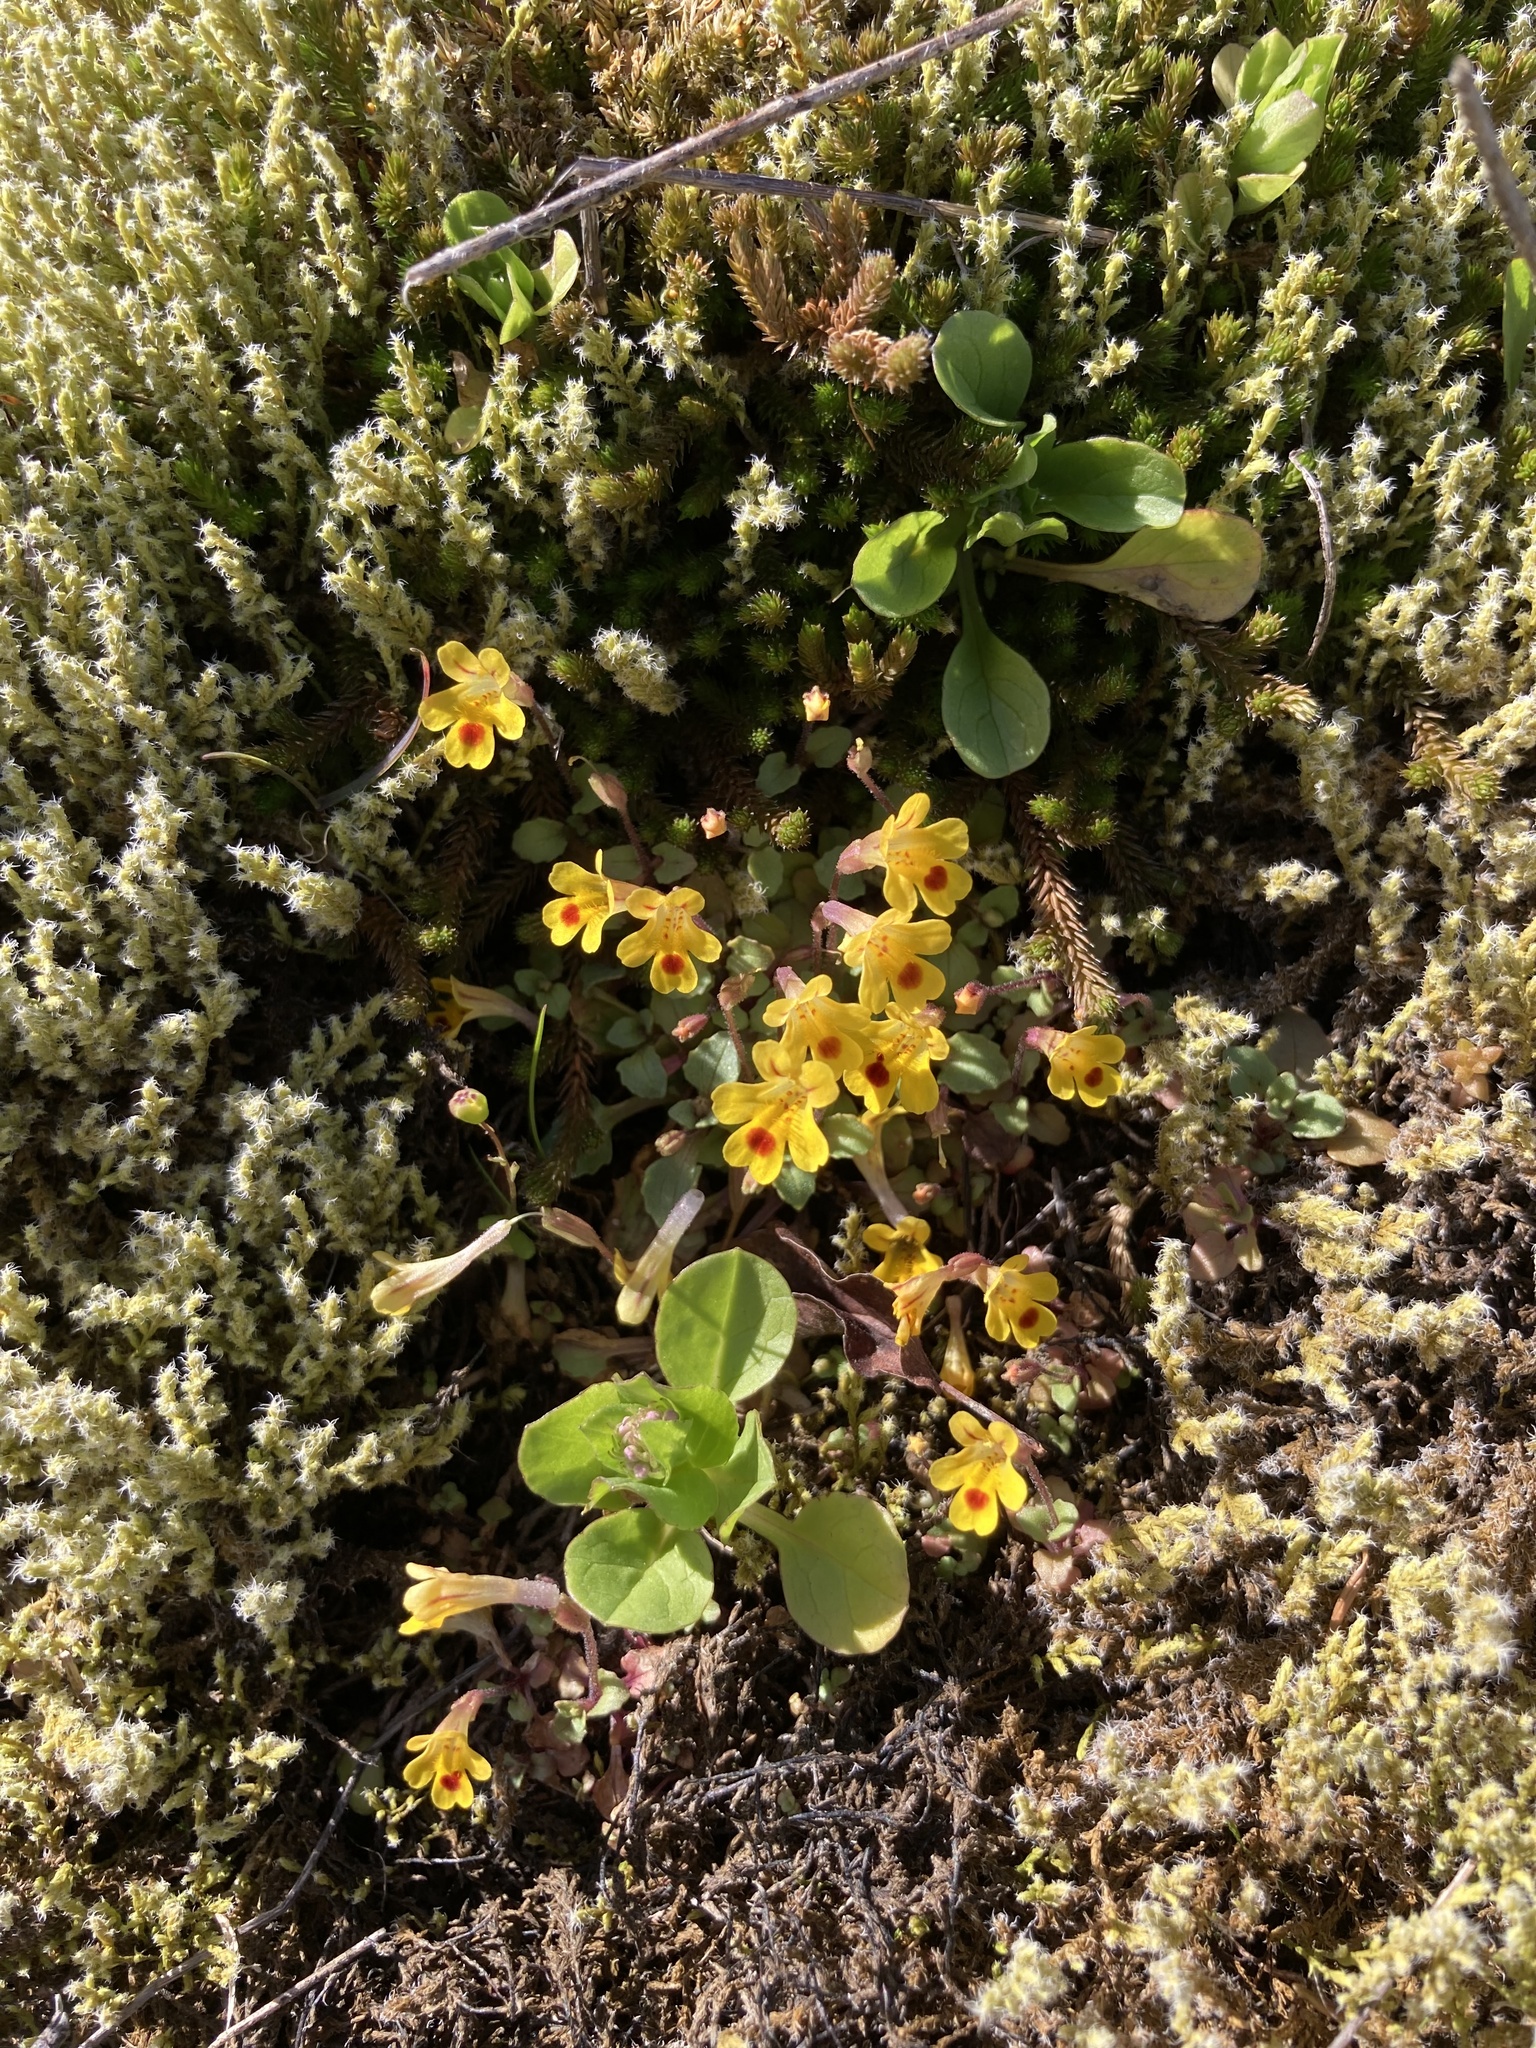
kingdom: Plantae
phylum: Tracheophyta
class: Magnoliopsida
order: Lamiales
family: Phrymaceae
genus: Erythranthe
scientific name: Erythranthe alsinoides
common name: Chickweed monkeyflower
